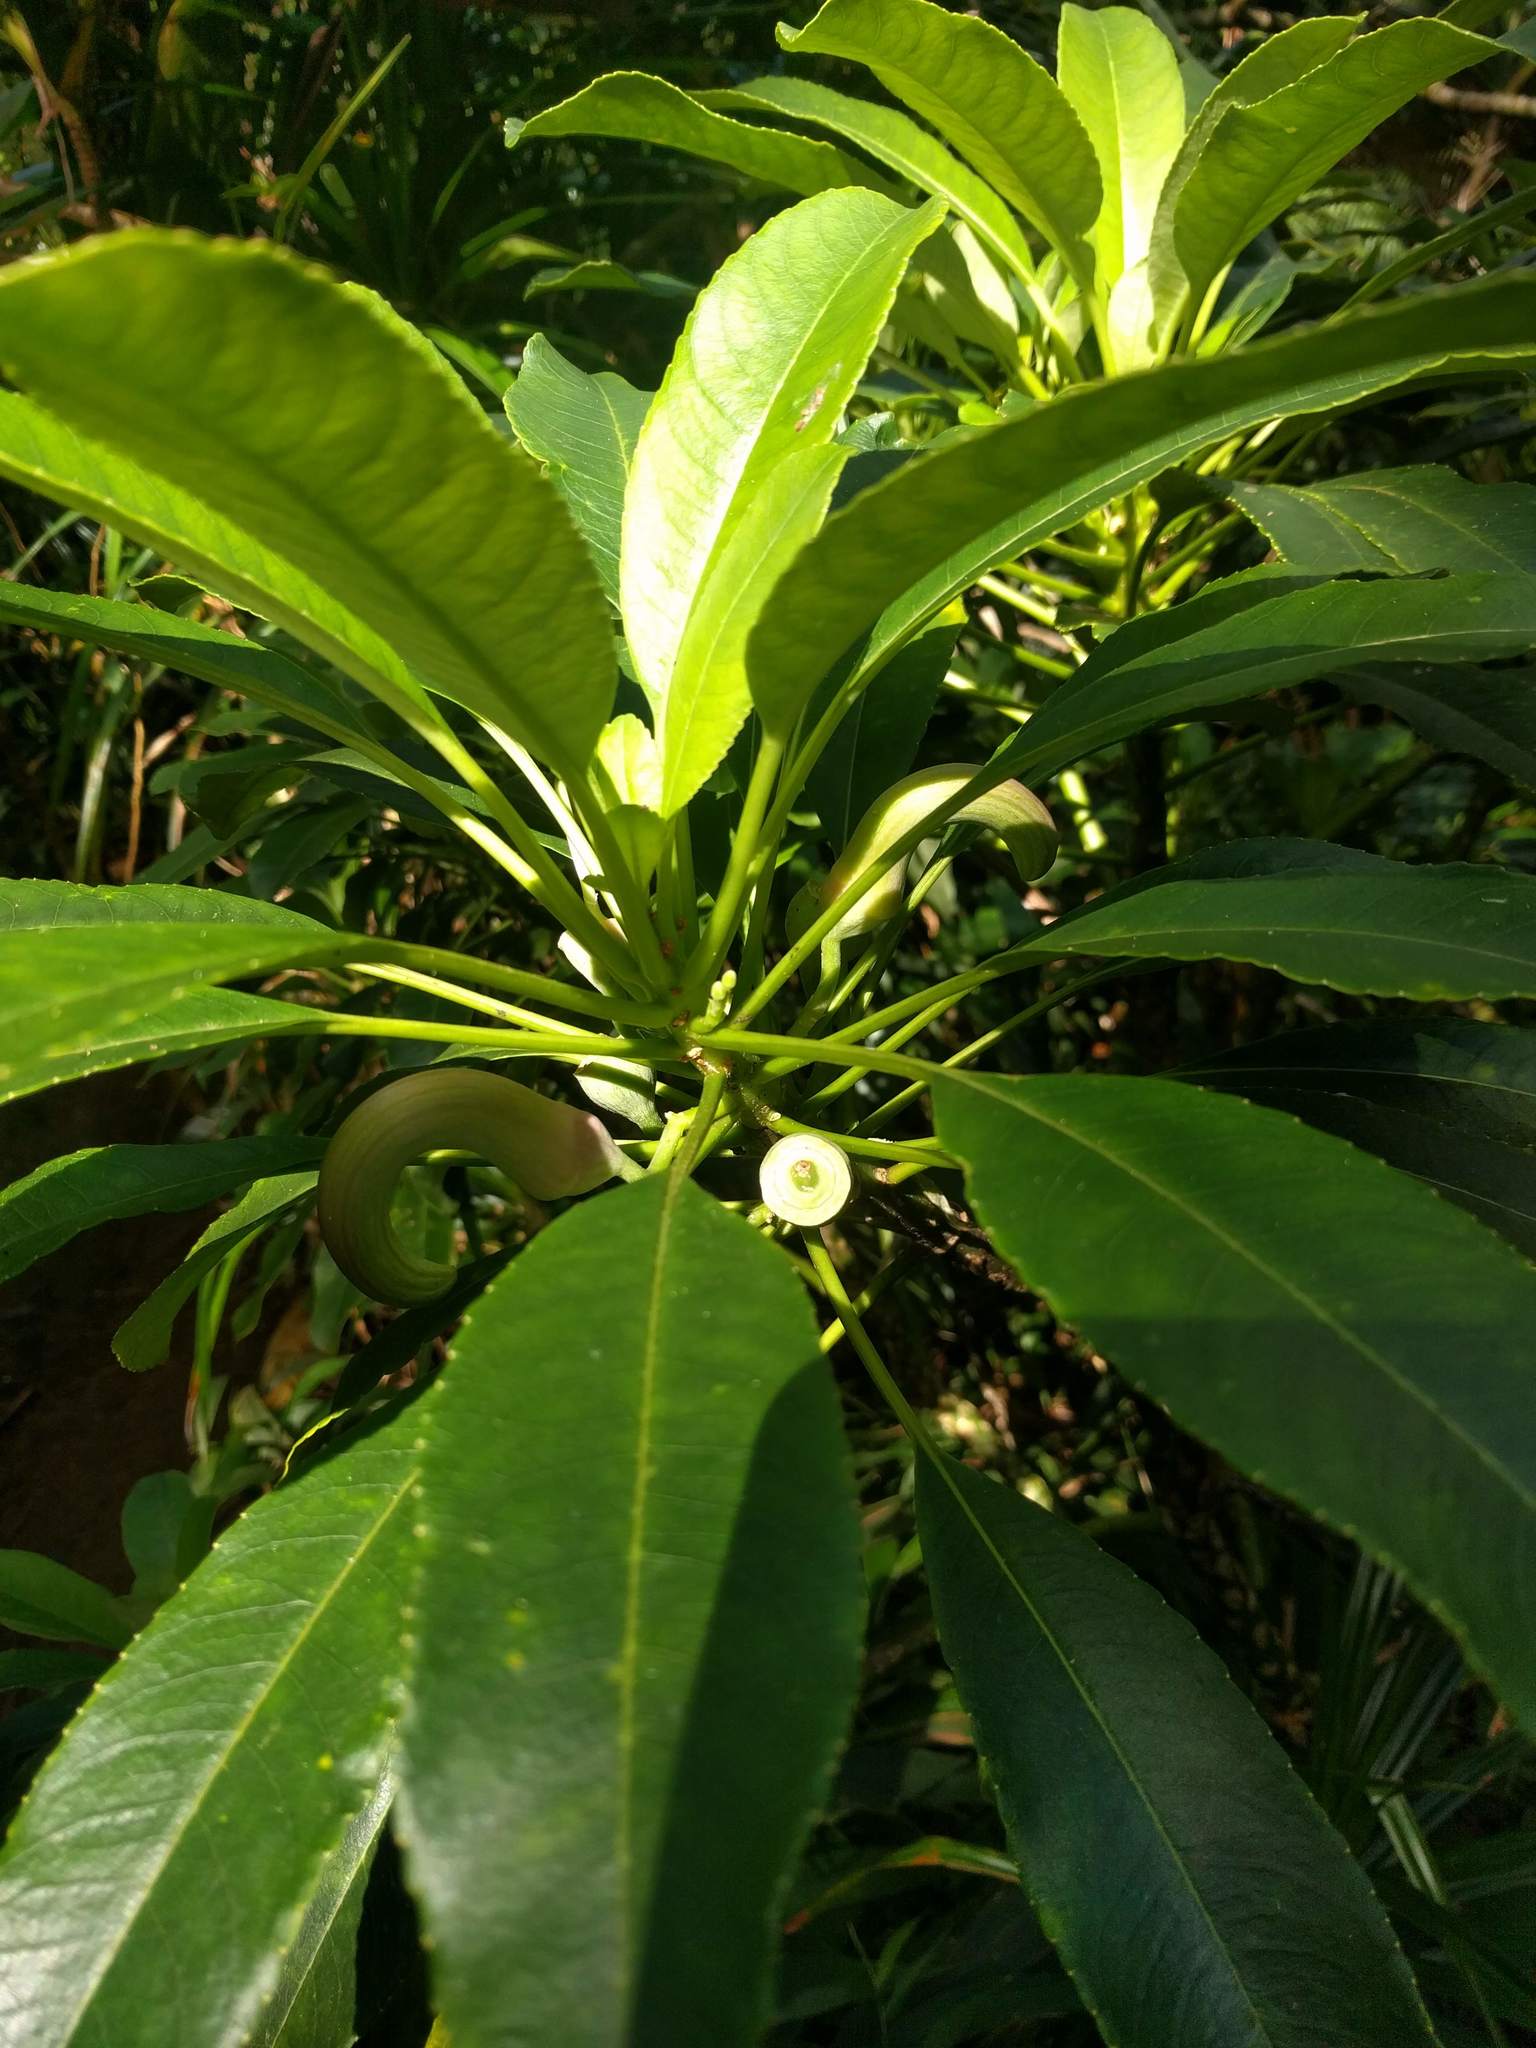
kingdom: Plantae
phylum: Tracheophyta
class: Magnoliopsida
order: Asterales
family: Campanulaceae
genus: Clermontia
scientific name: Clermontia oblongifolia
